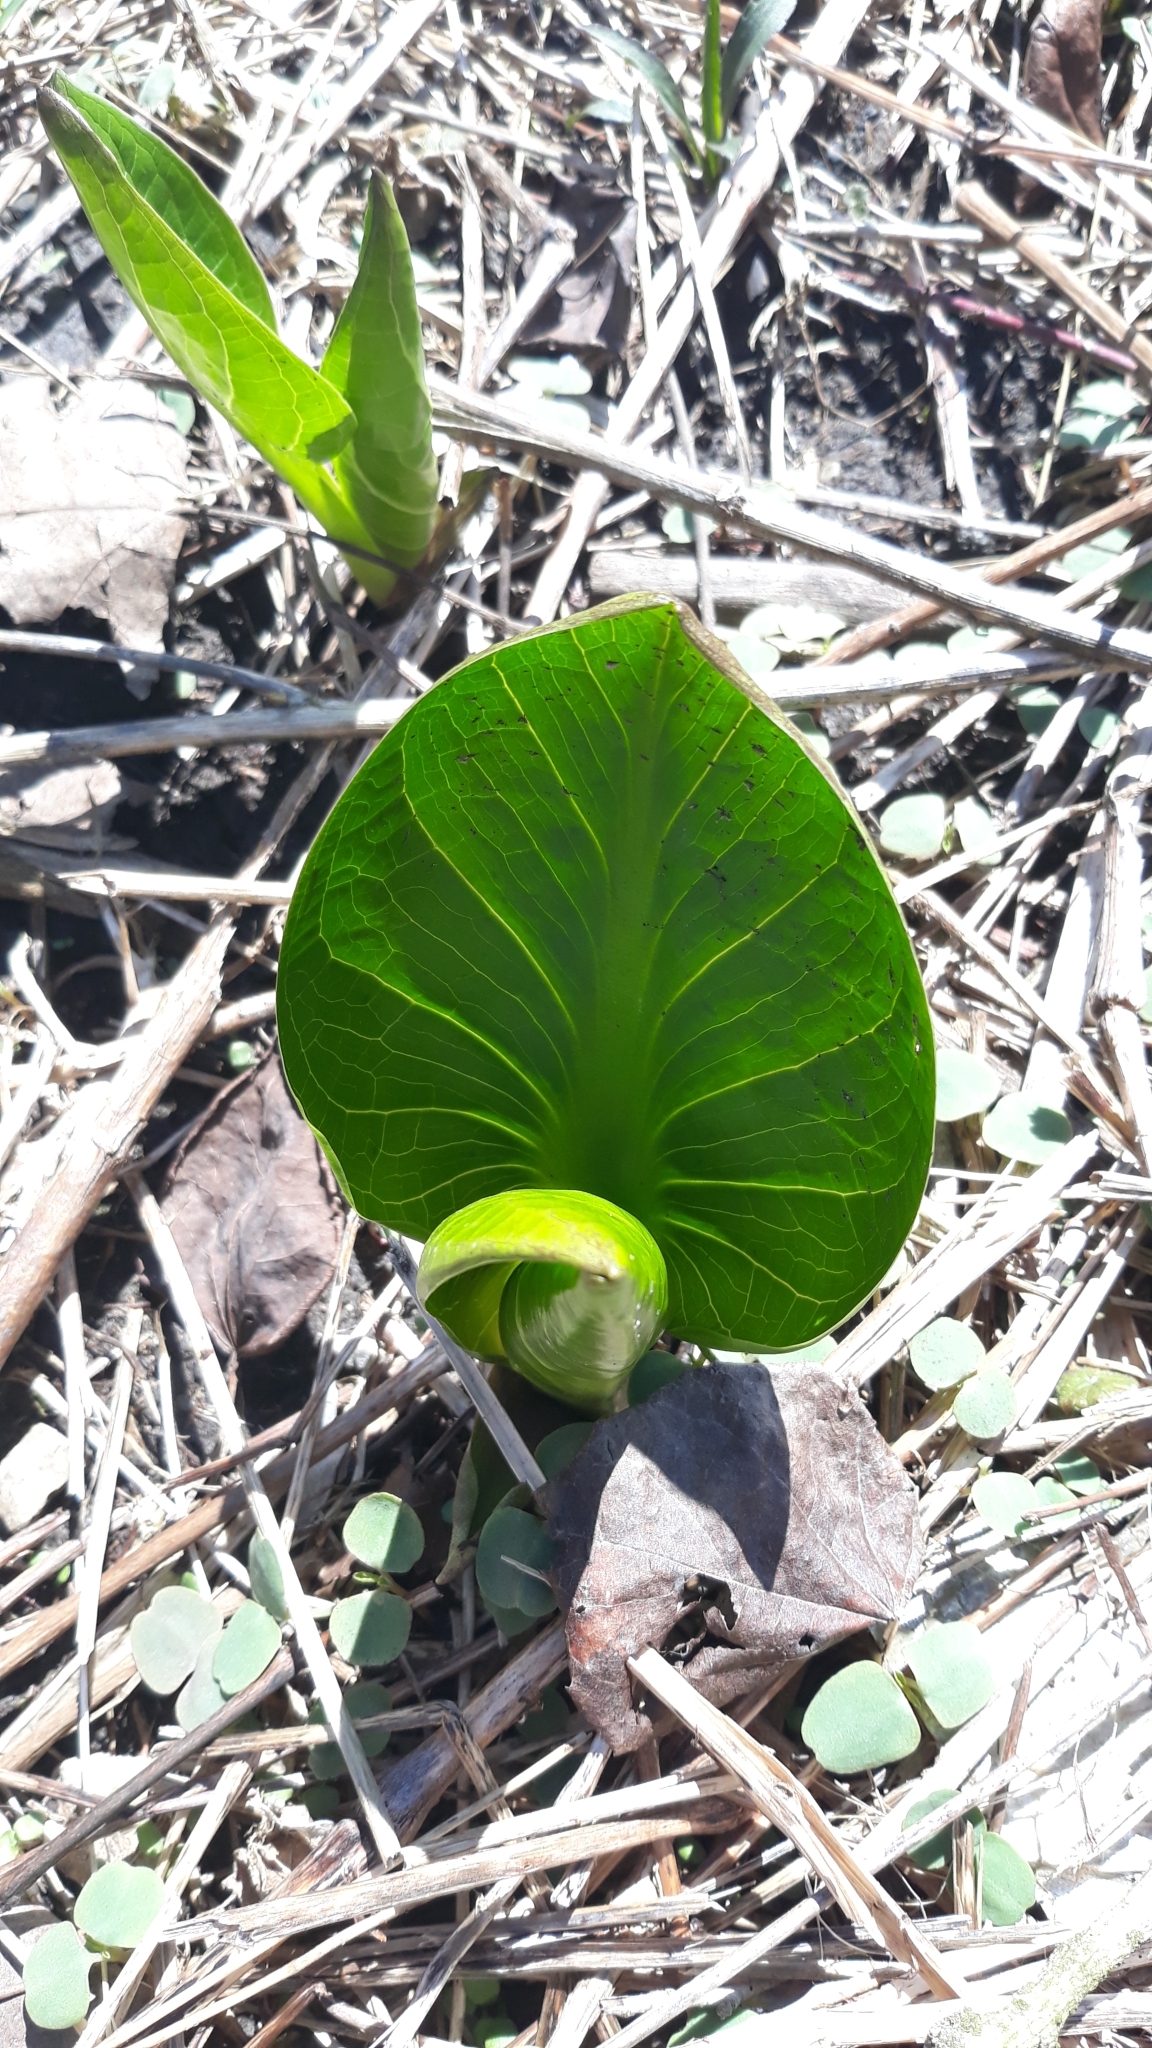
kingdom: Plantae
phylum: Tracheophyta
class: Liliopsida
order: Alismatales
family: Araceae
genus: Symplocarpus
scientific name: Symplocarpus foetidus
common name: Eastern skunk cabbage
